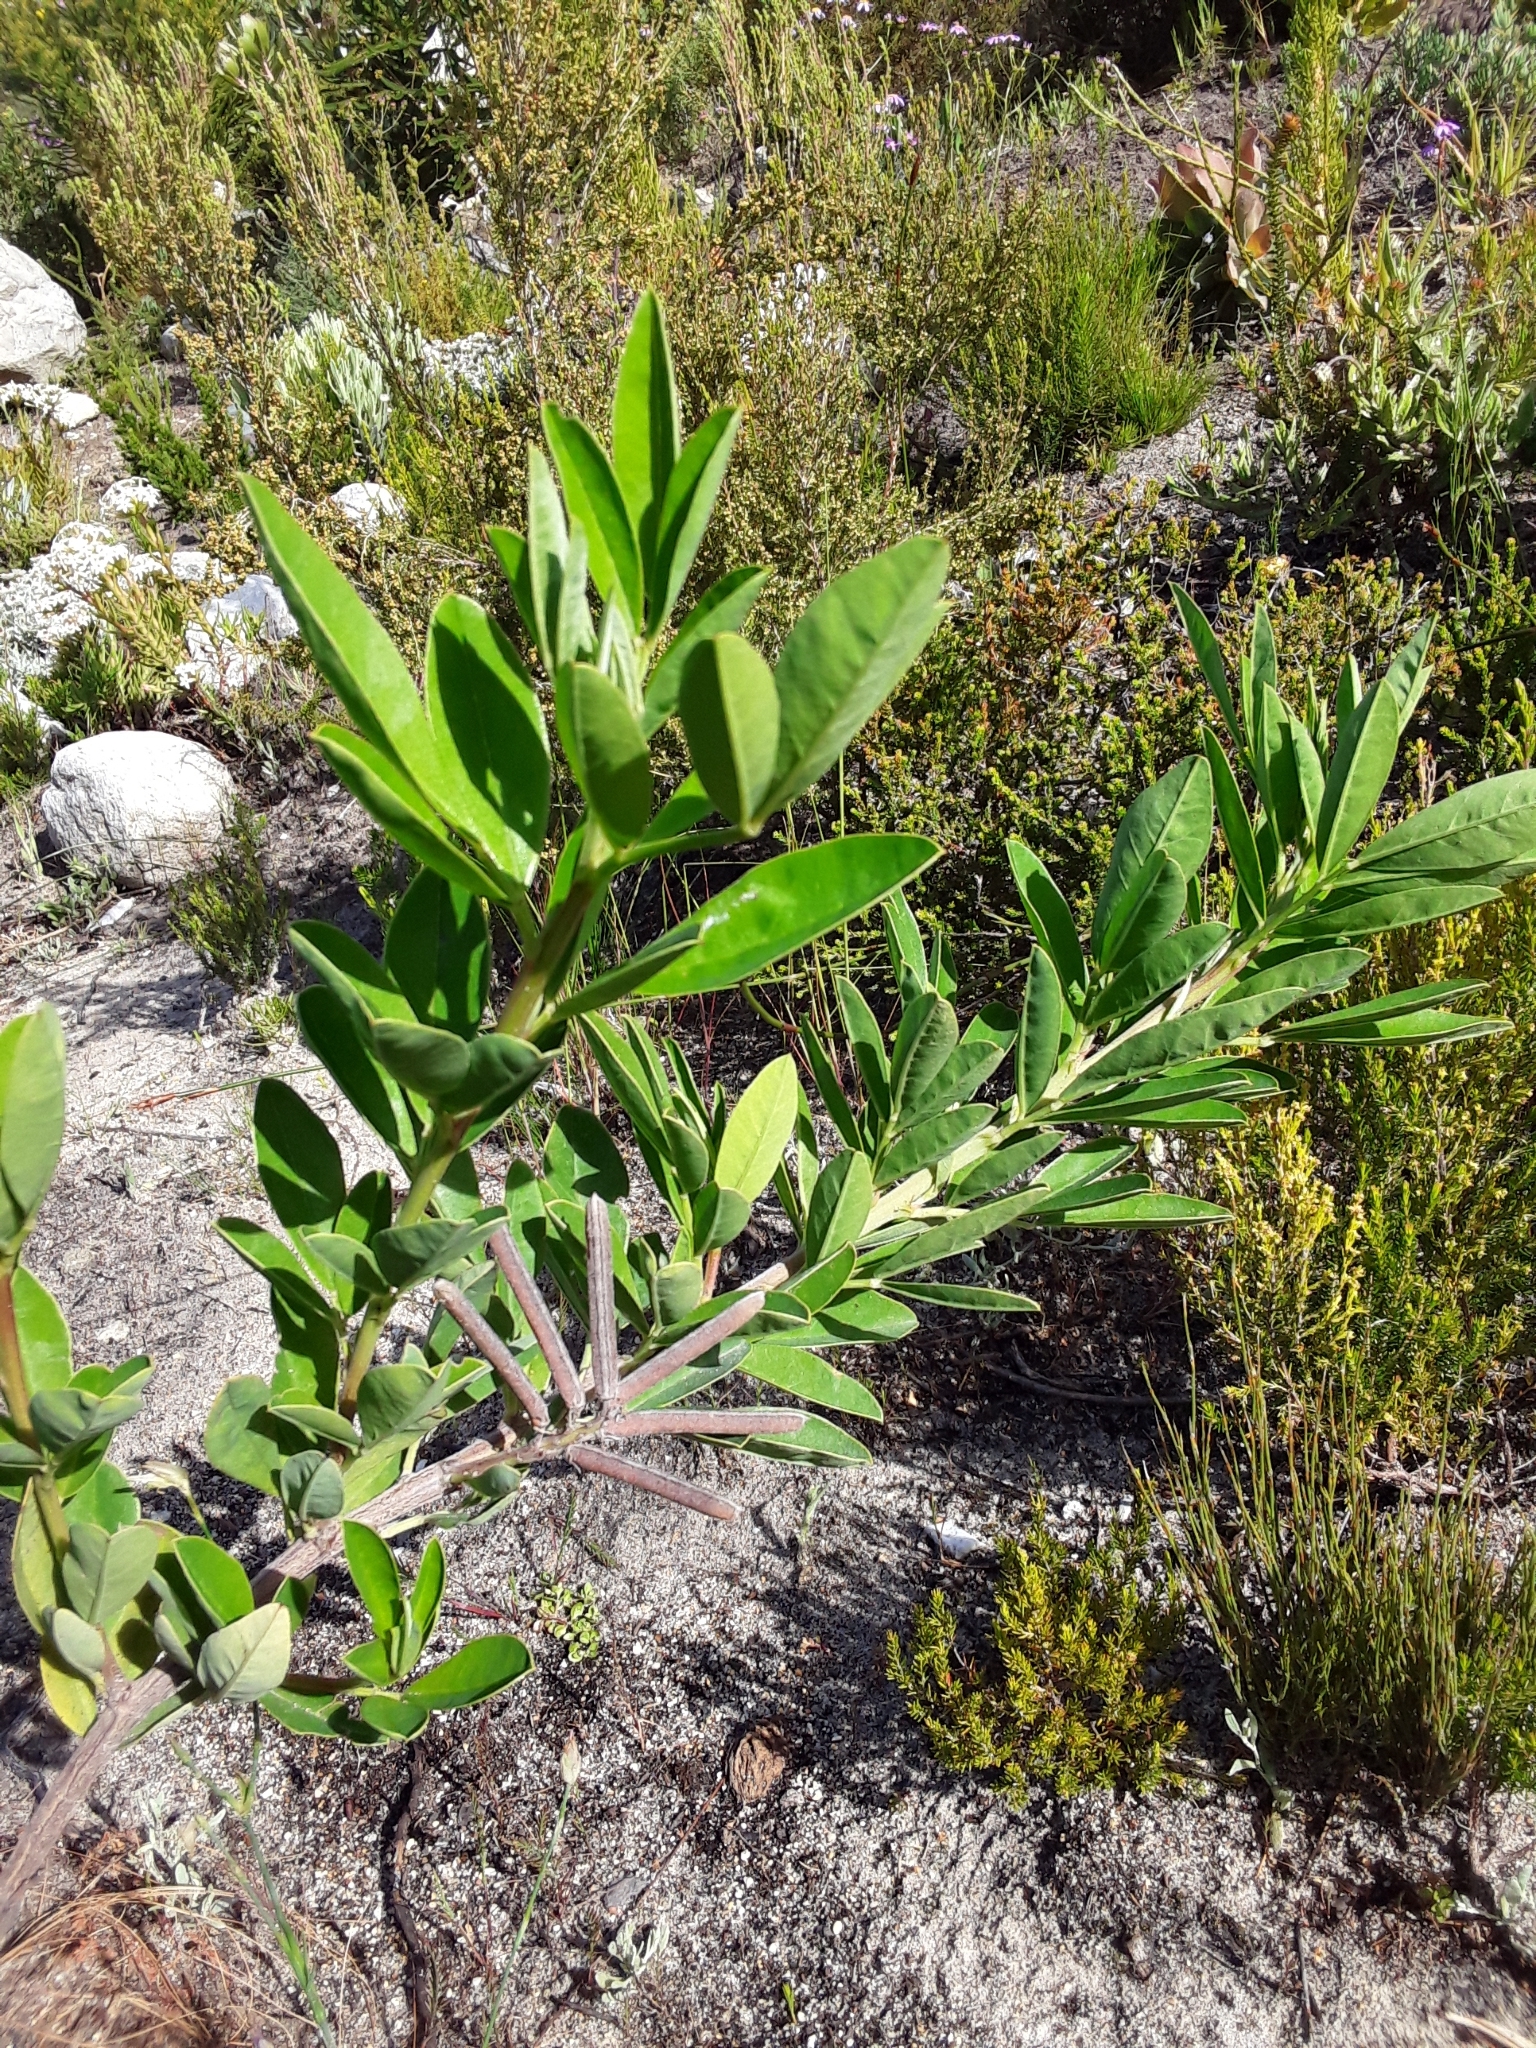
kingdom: Plantae
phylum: Tracheophyta
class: Magnoliopsida
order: Fabales
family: Fabaceae
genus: Indigofera
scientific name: Indigofera cytisoides
